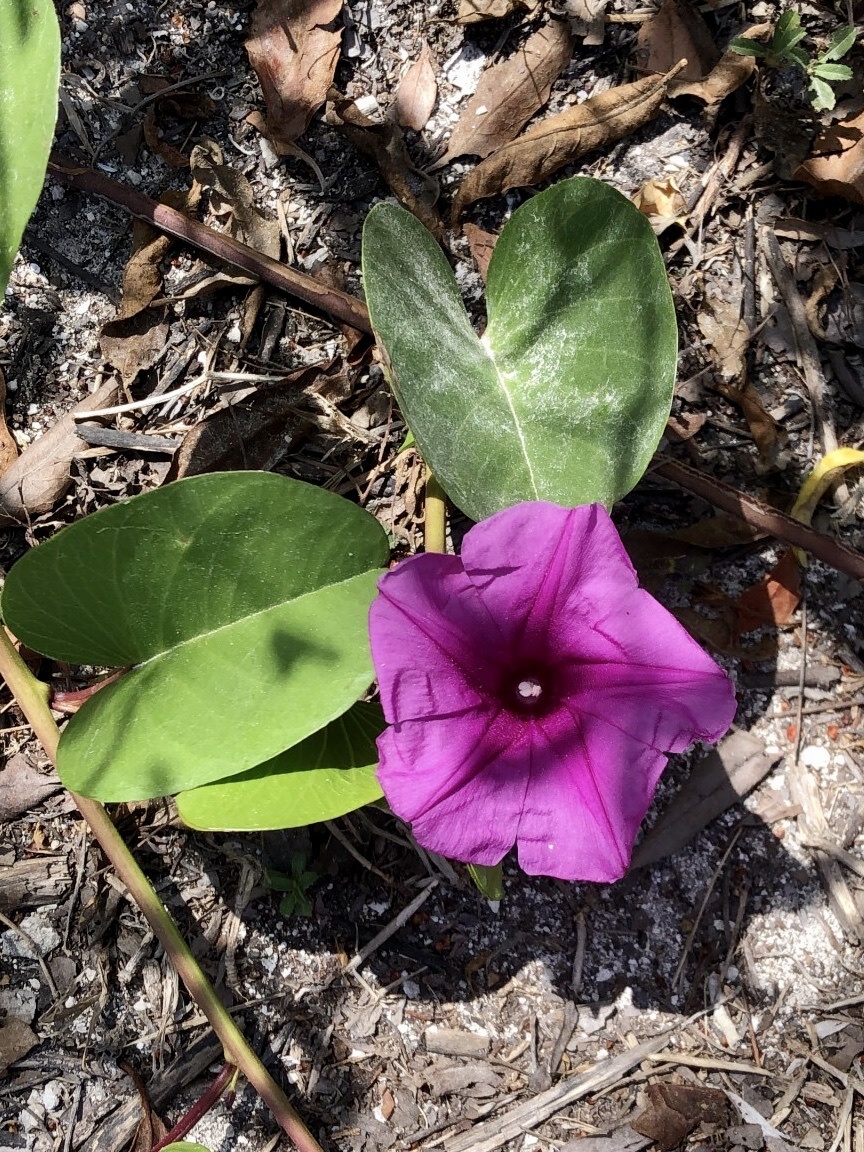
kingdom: Plantae
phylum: Tracheophyta
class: Magnoliopsida
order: Solanales
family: Convolvulaceae
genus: Ipomoea
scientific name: Ipomoea pes-caprae
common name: Beach morning glory
